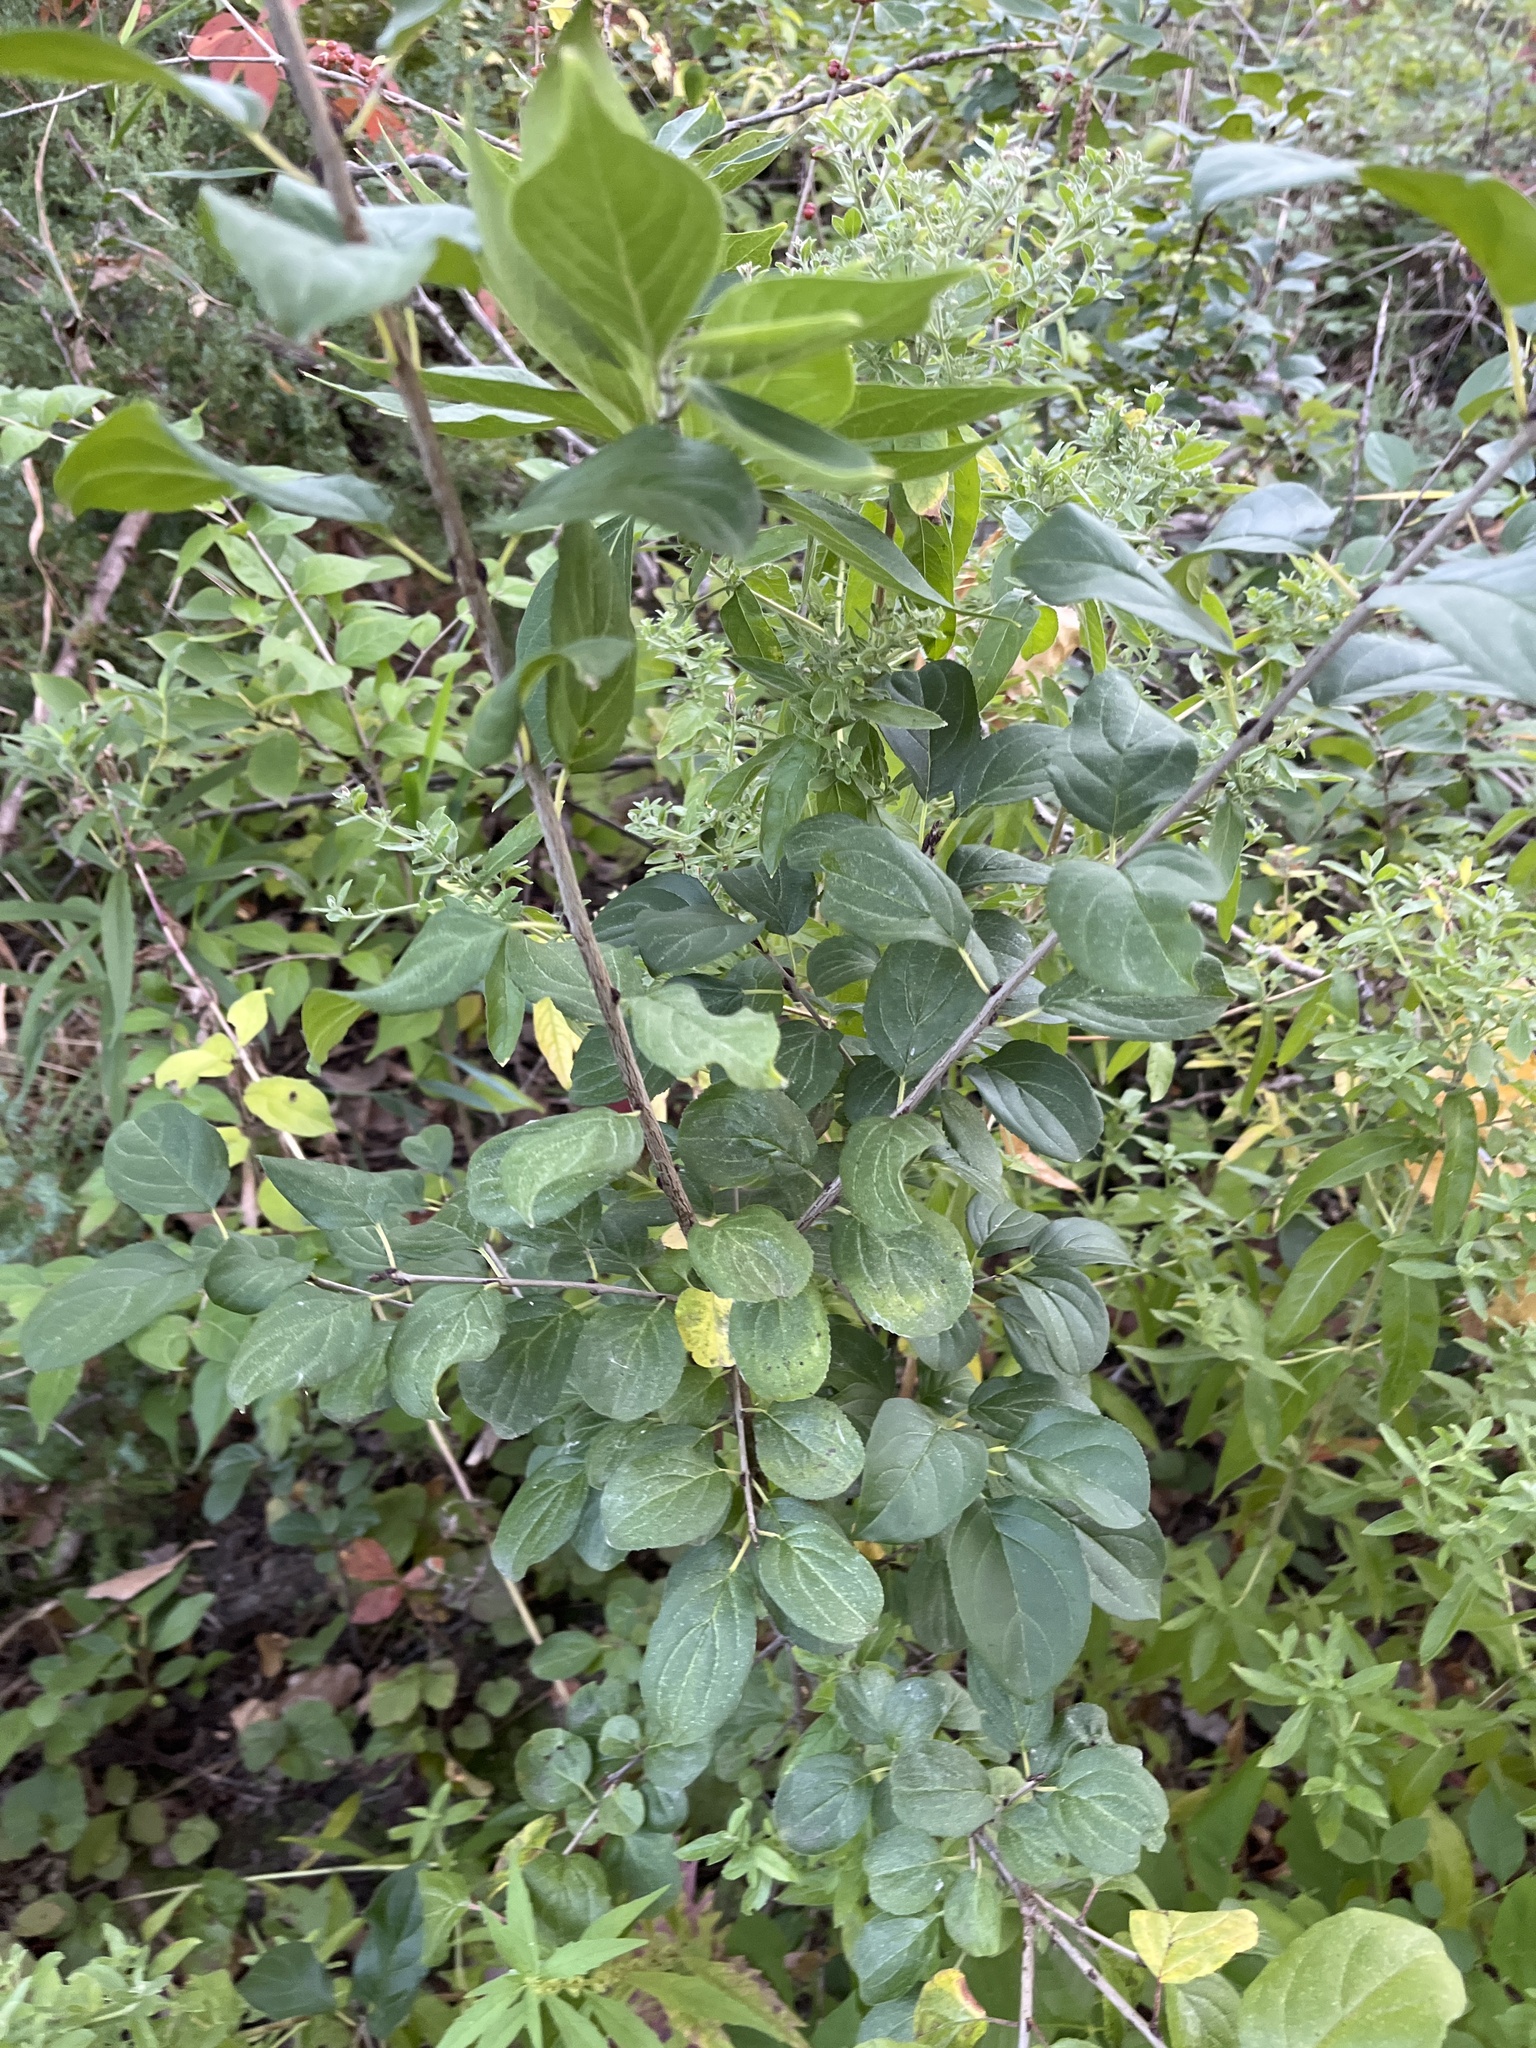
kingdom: Plantae
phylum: Tracheophyta
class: Magnoliopsida
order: Rosales
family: Rhamnaceae
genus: Rhamnus
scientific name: Rhamnus cathartica
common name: Common buckthorn
